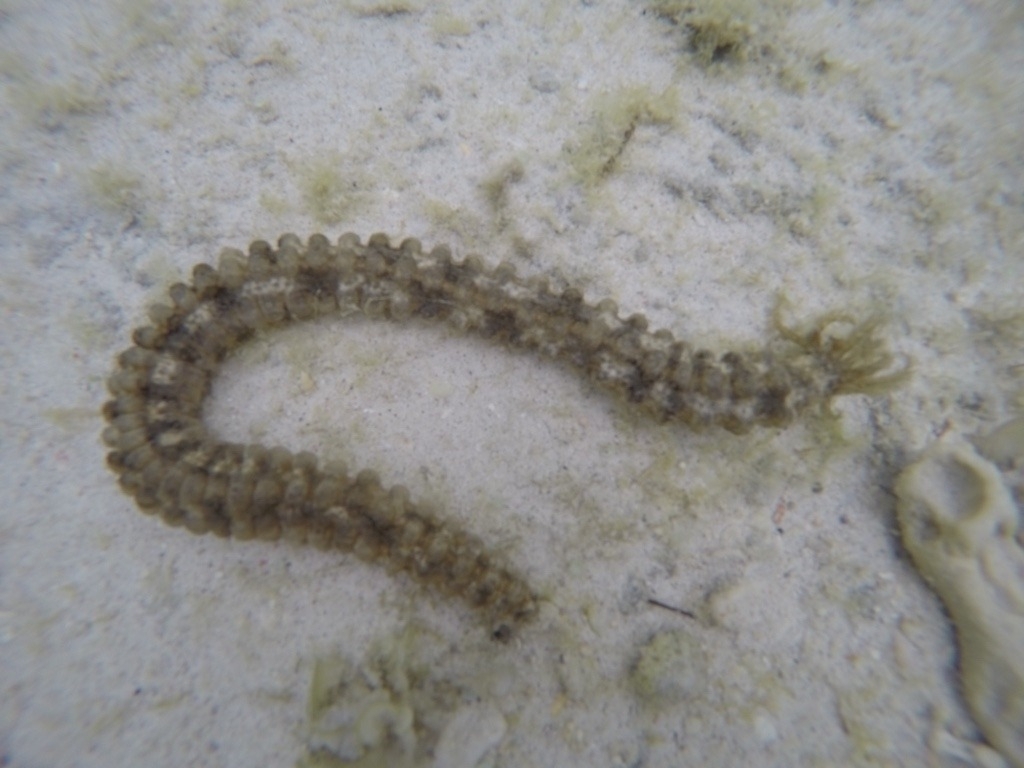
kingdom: Animalia
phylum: Echinodermata
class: Holothuroidea
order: Apodida
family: Synaptidae
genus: Synapta
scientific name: Synapta maculata
